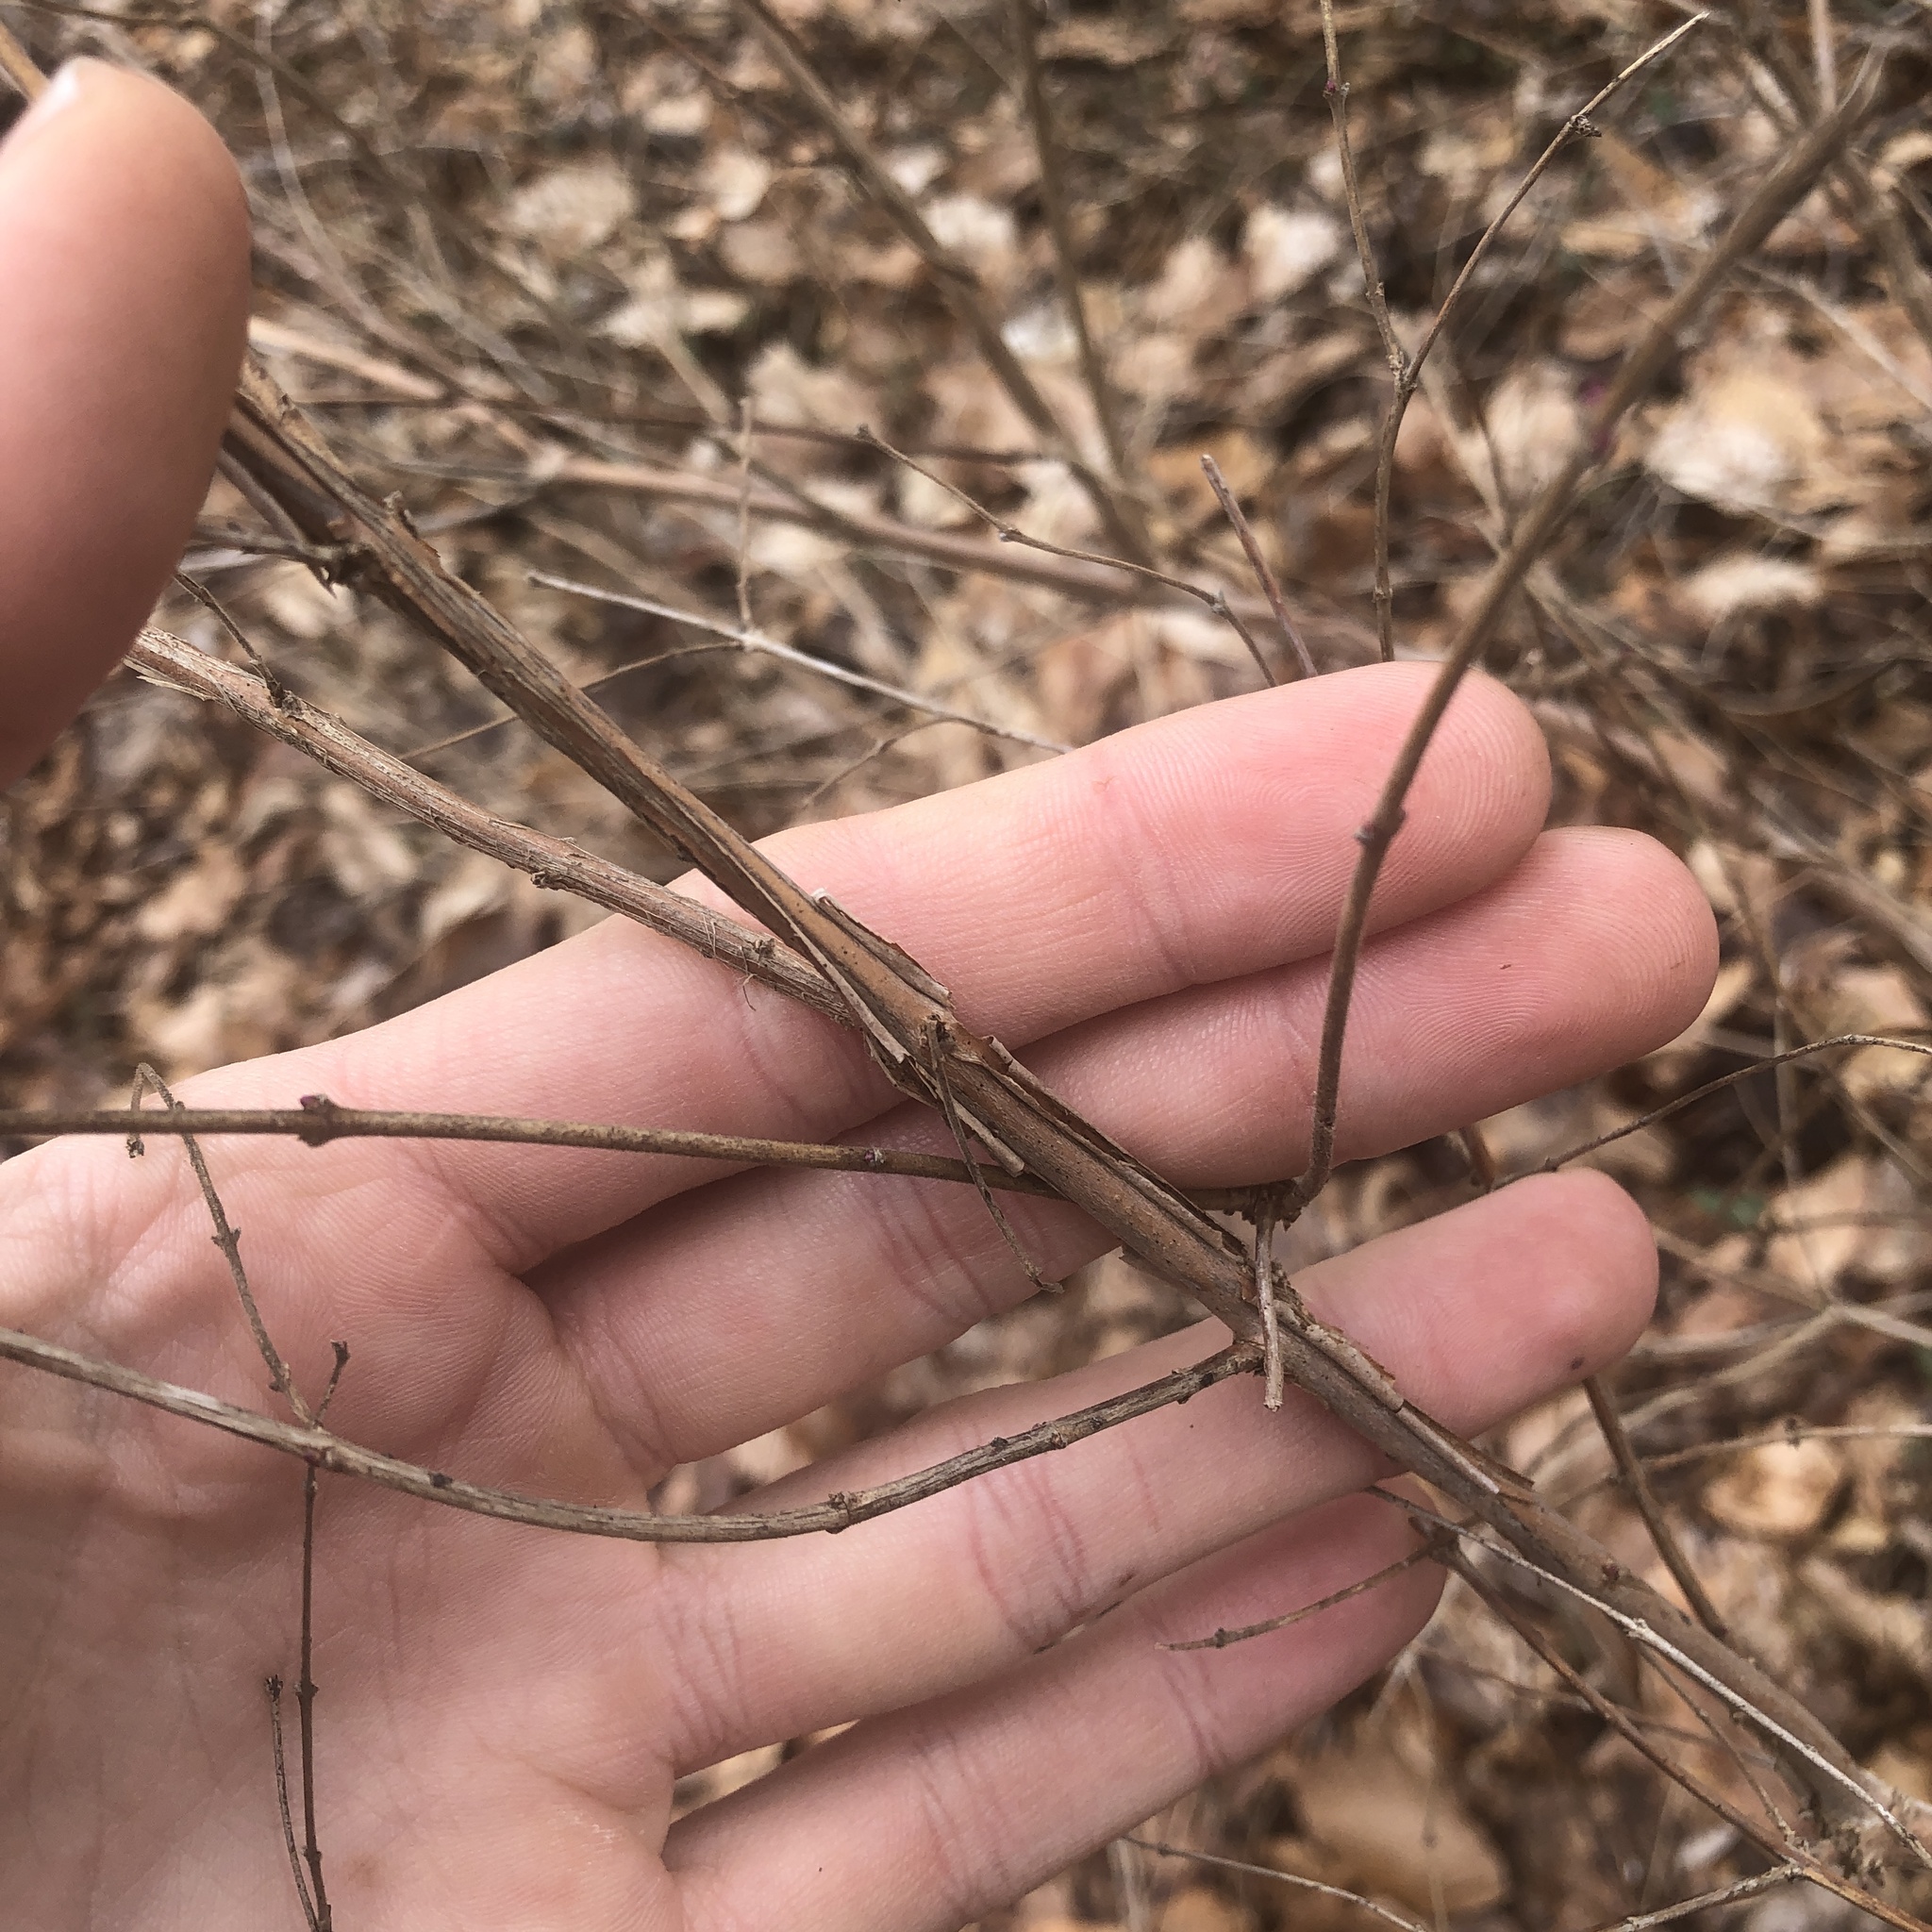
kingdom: Plantae
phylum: Tracheophyta
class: Magnoliopsida
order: Dipsacales
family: Caprifoliaceae
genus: Symphoricarpos
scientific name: Symphoricarpos orbiculatus
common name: Coralberry
